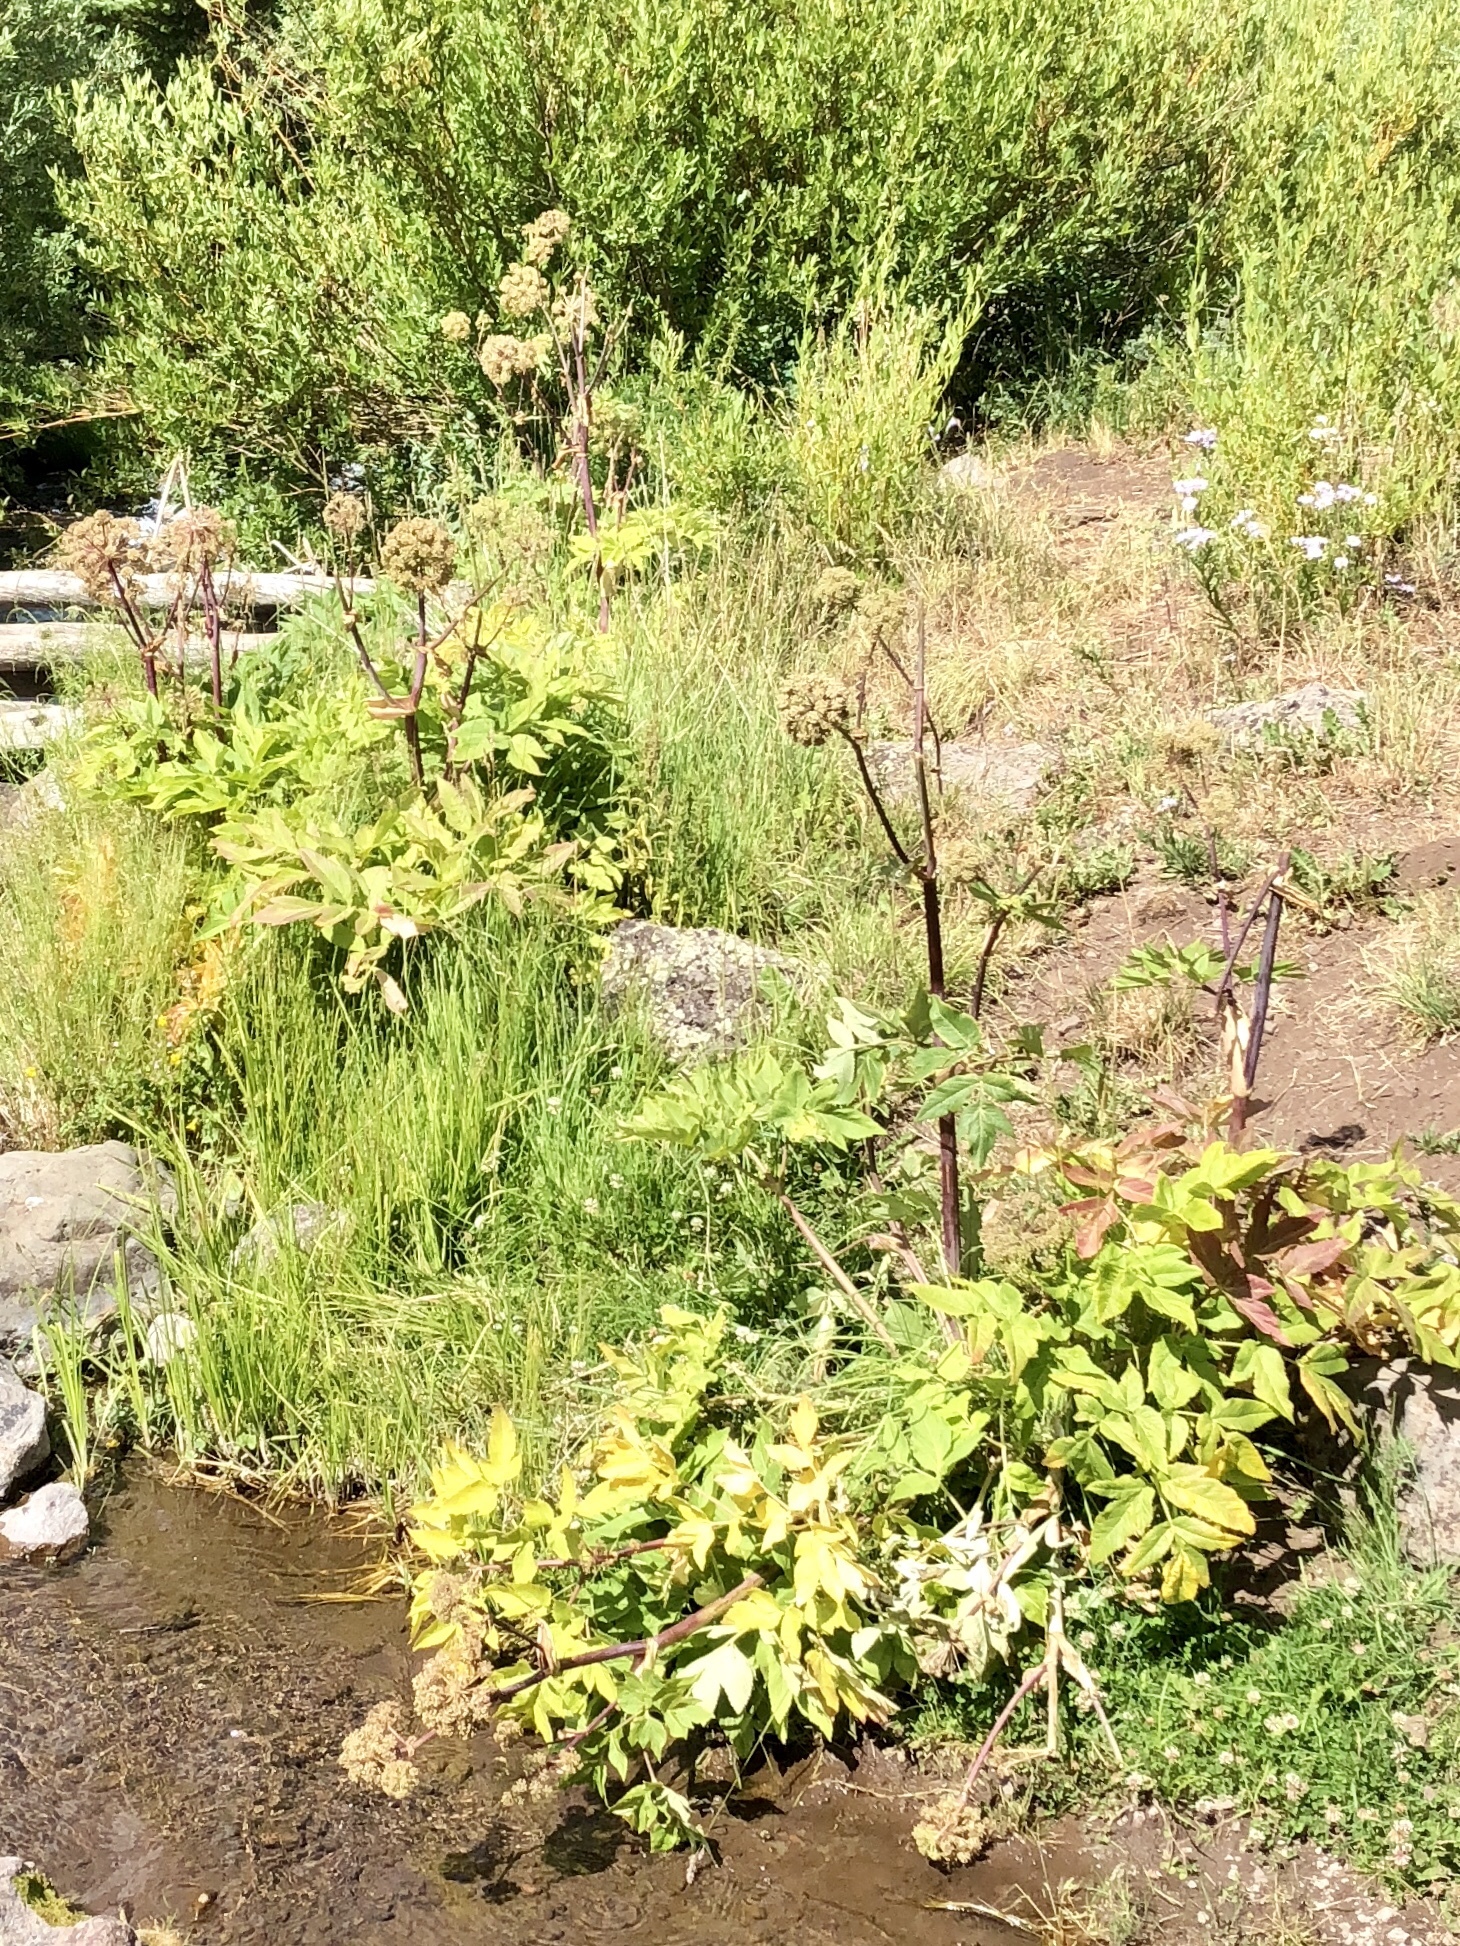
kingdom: Plantae
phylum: Tracheophyta
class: Magnoliopsida
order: Apiales
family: Apiaceae
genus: Heracleum
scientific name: Heracleum maximum
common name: American cow parsnip
